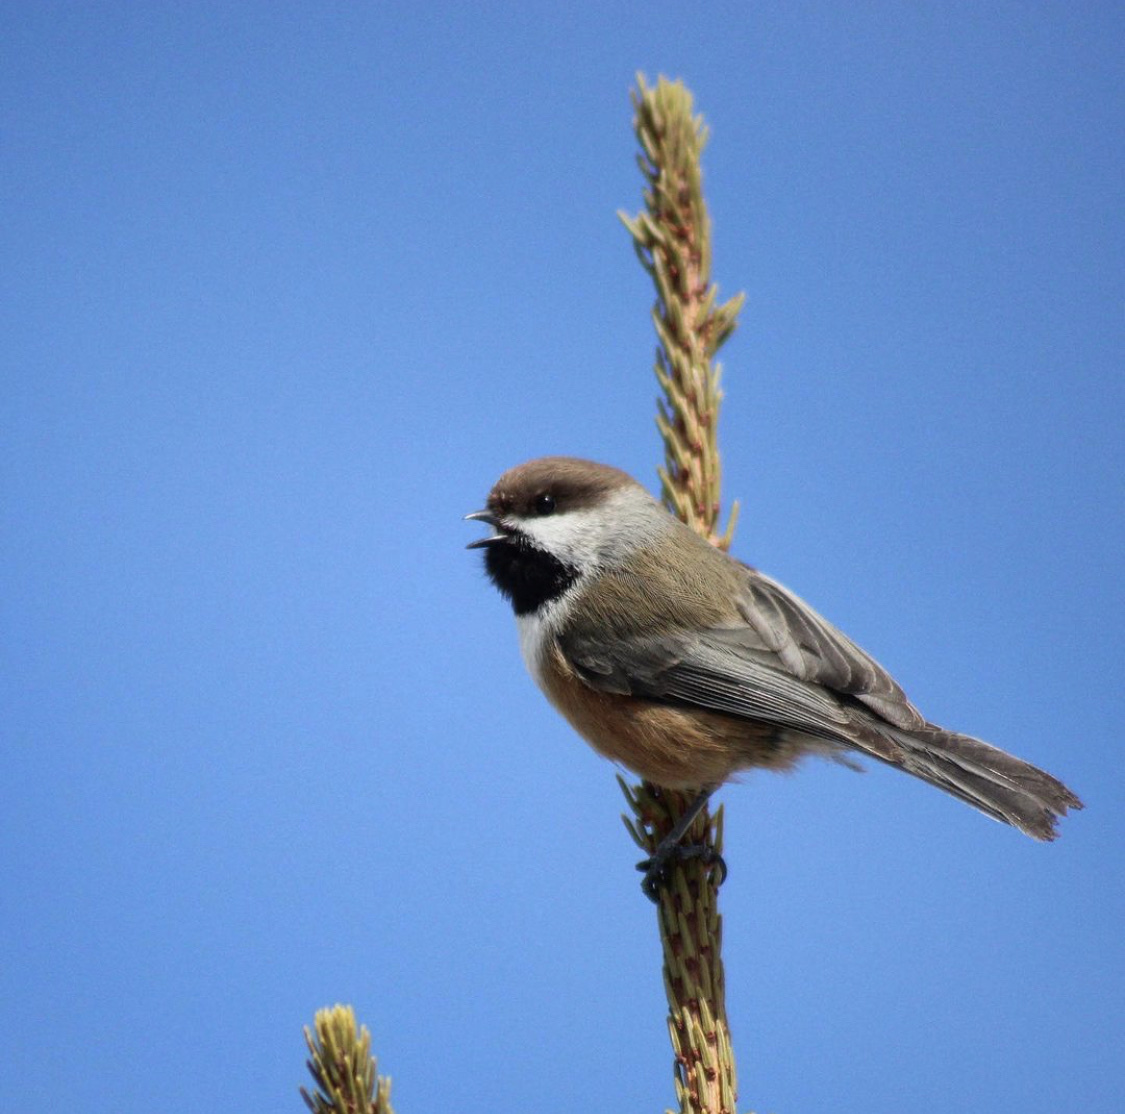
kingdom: Animalia
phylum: Chordata
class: Aves
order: Passeriformes
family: Paridae
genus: Poecile
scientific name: Poecile hudsonicus
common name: Boreal chickadee
